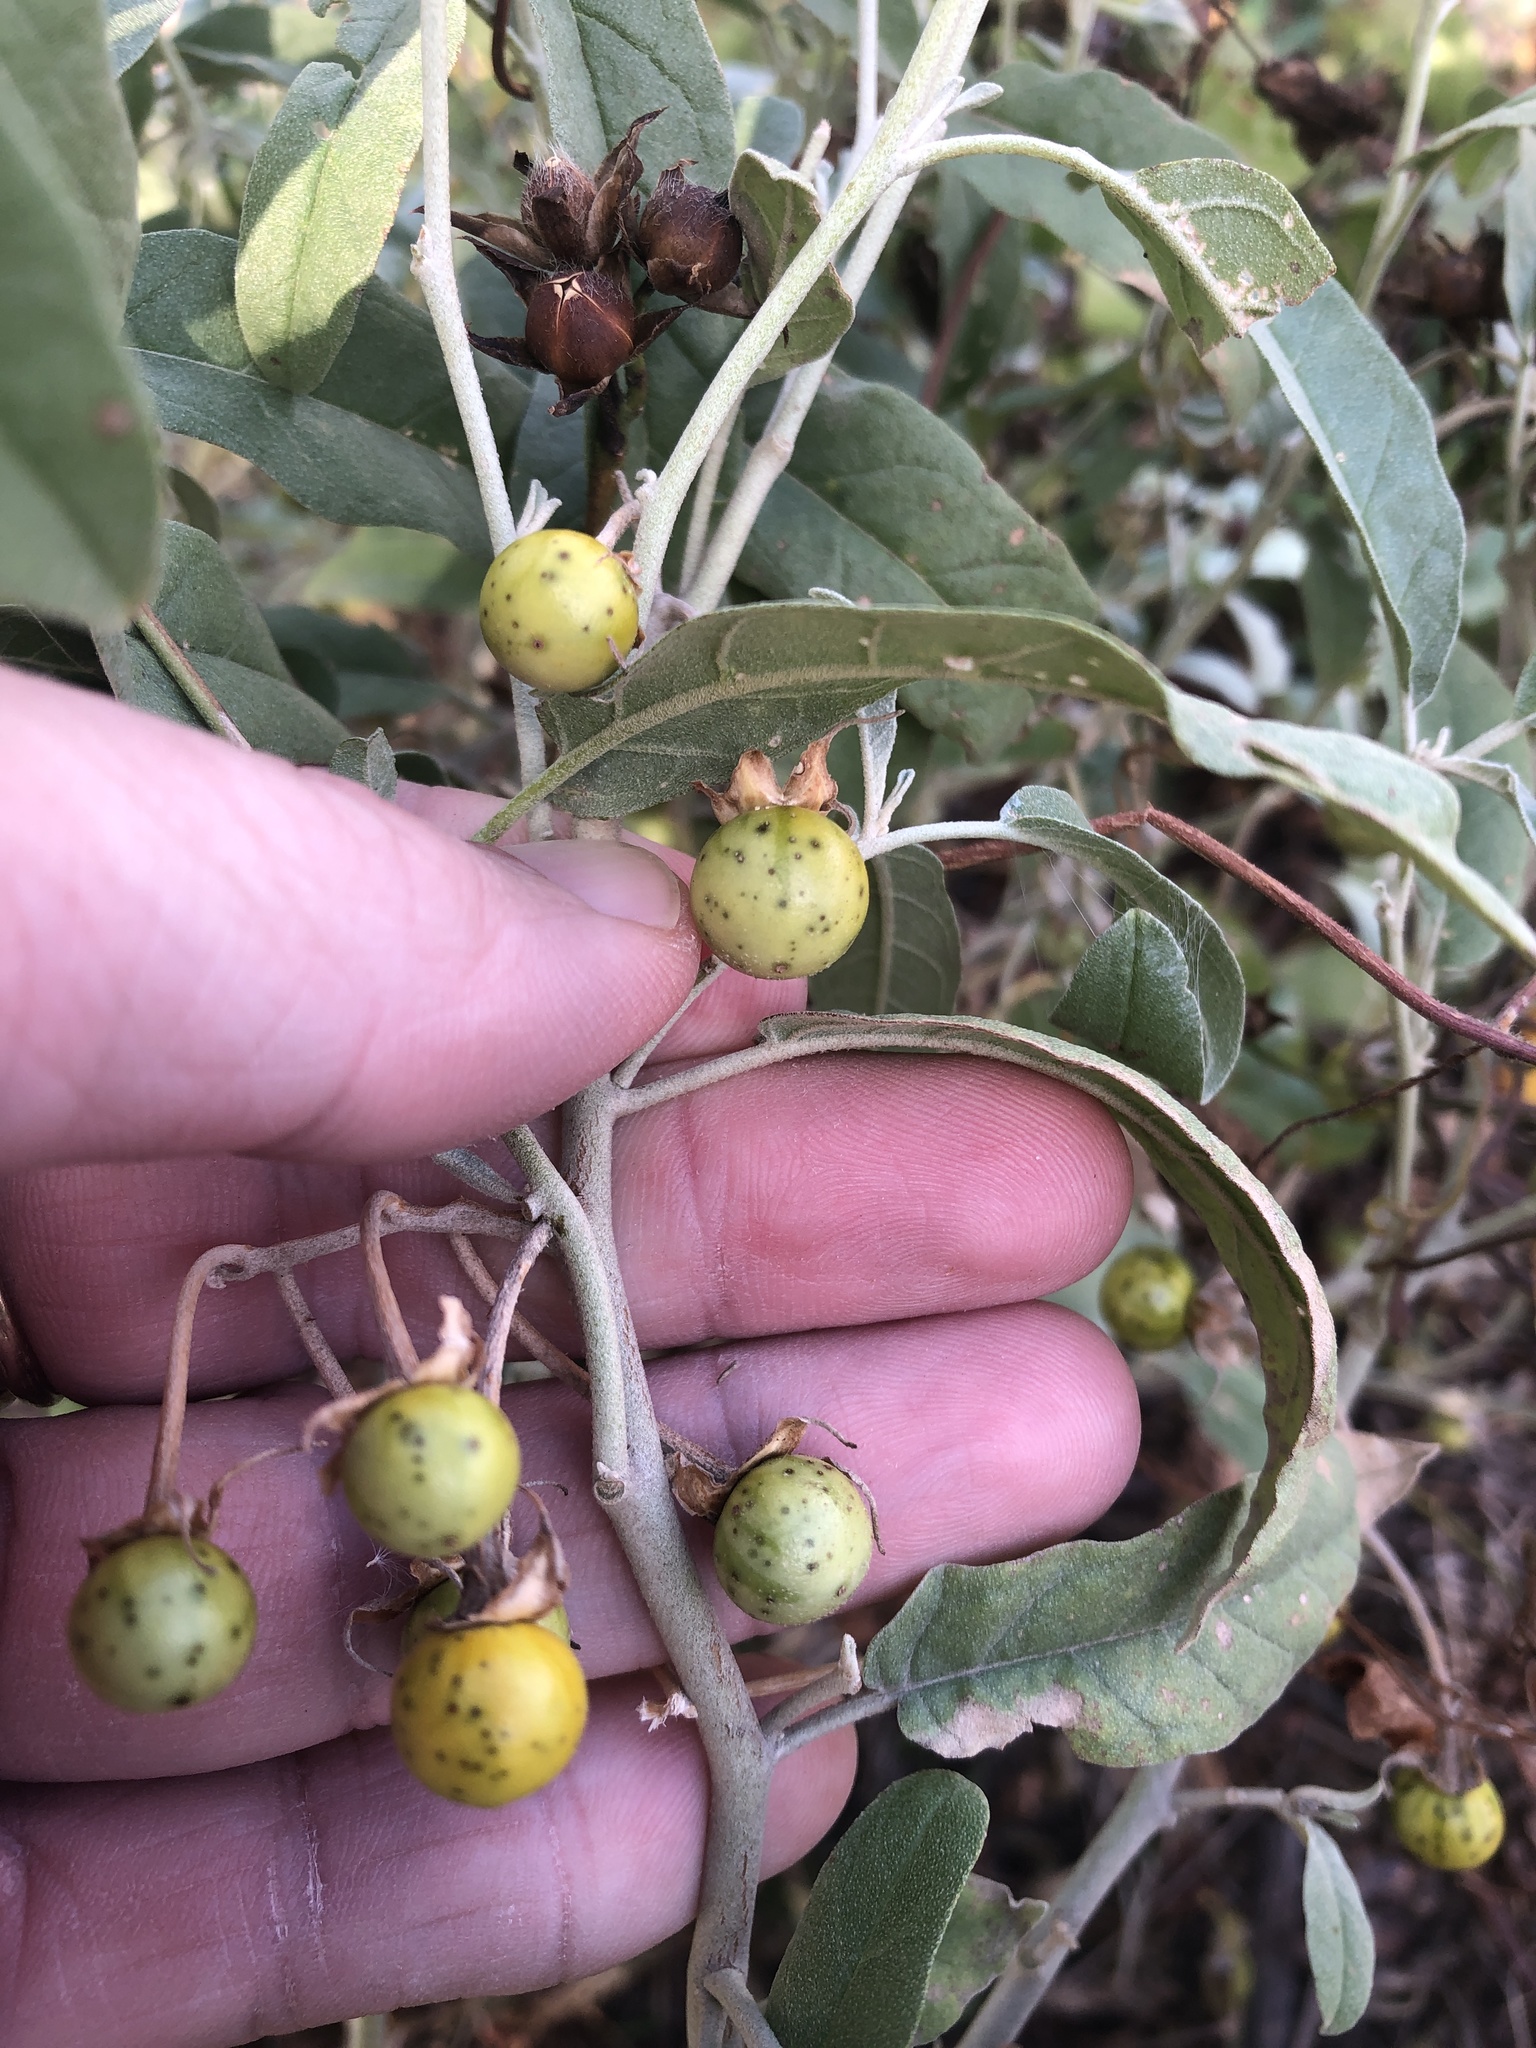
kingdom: Plantae
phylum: Tracheophyta
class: Magnoliopsida
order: Solanales
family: Solanaceae
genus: Solanum
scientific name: Solanum elaeagnifolium
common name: Silverleaf nightshade
